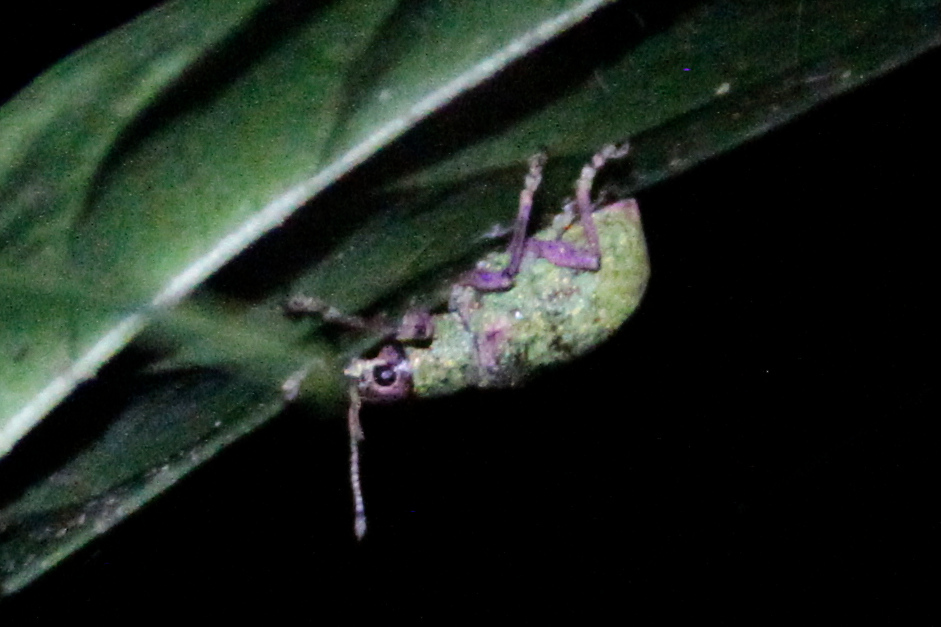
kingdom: Animalia
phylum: Arthropoda
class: Insecta
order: Coleoptera
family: Curculionidae
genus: Exophthalmus
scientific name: Exophthalmus carneipes
